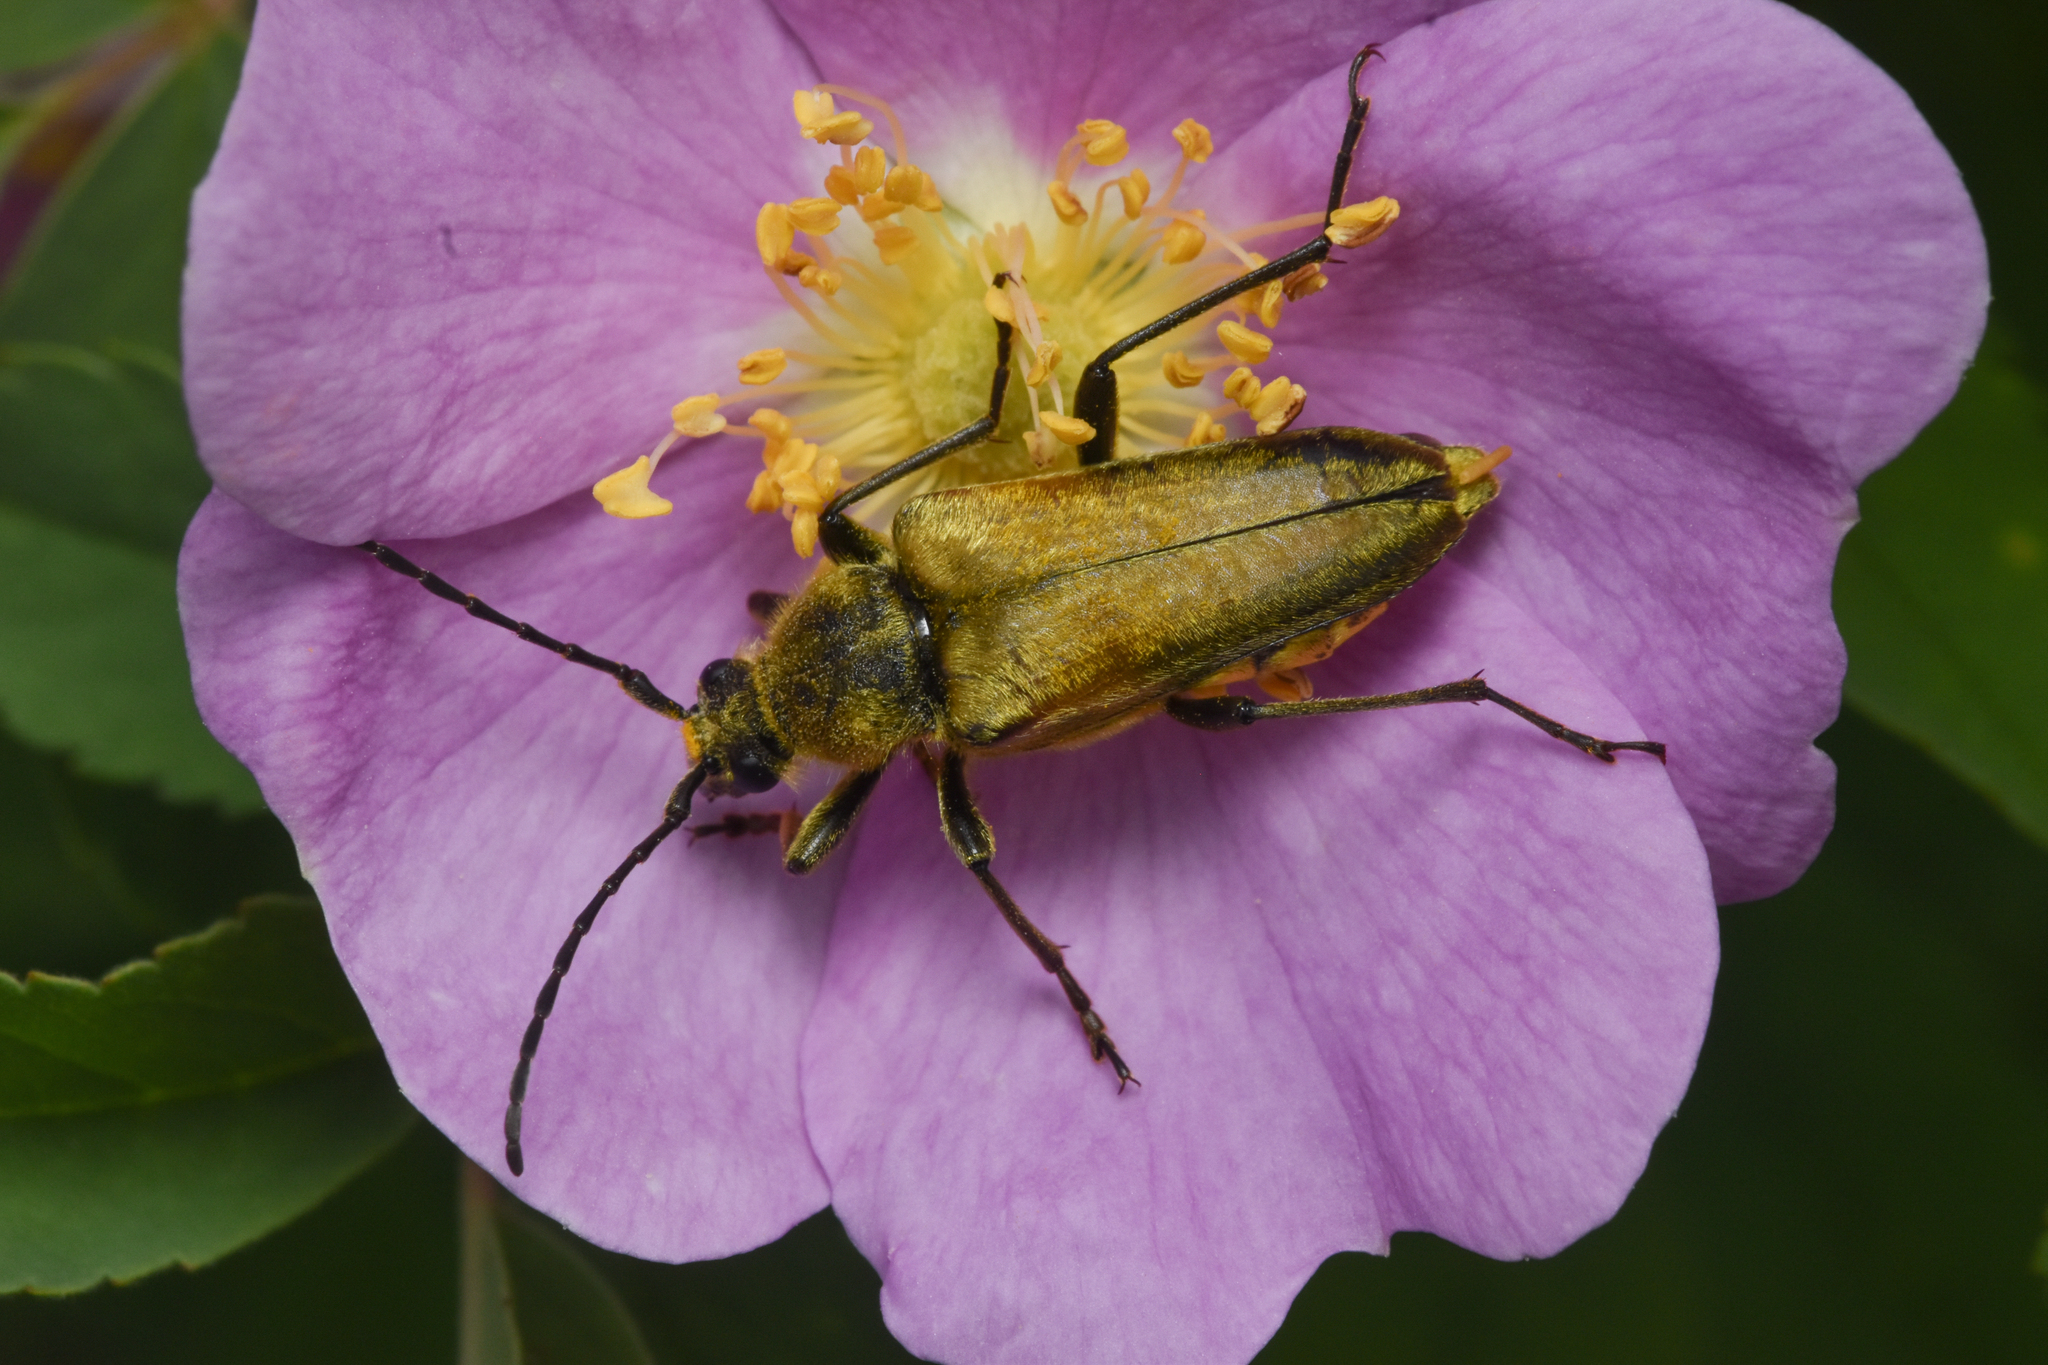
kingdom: Animalia
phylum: Arthropoda
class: Insecta
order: Coleoptera
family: Cerambycidae
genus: Cosmosalia
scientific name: Cosmosalia chrysocoma
